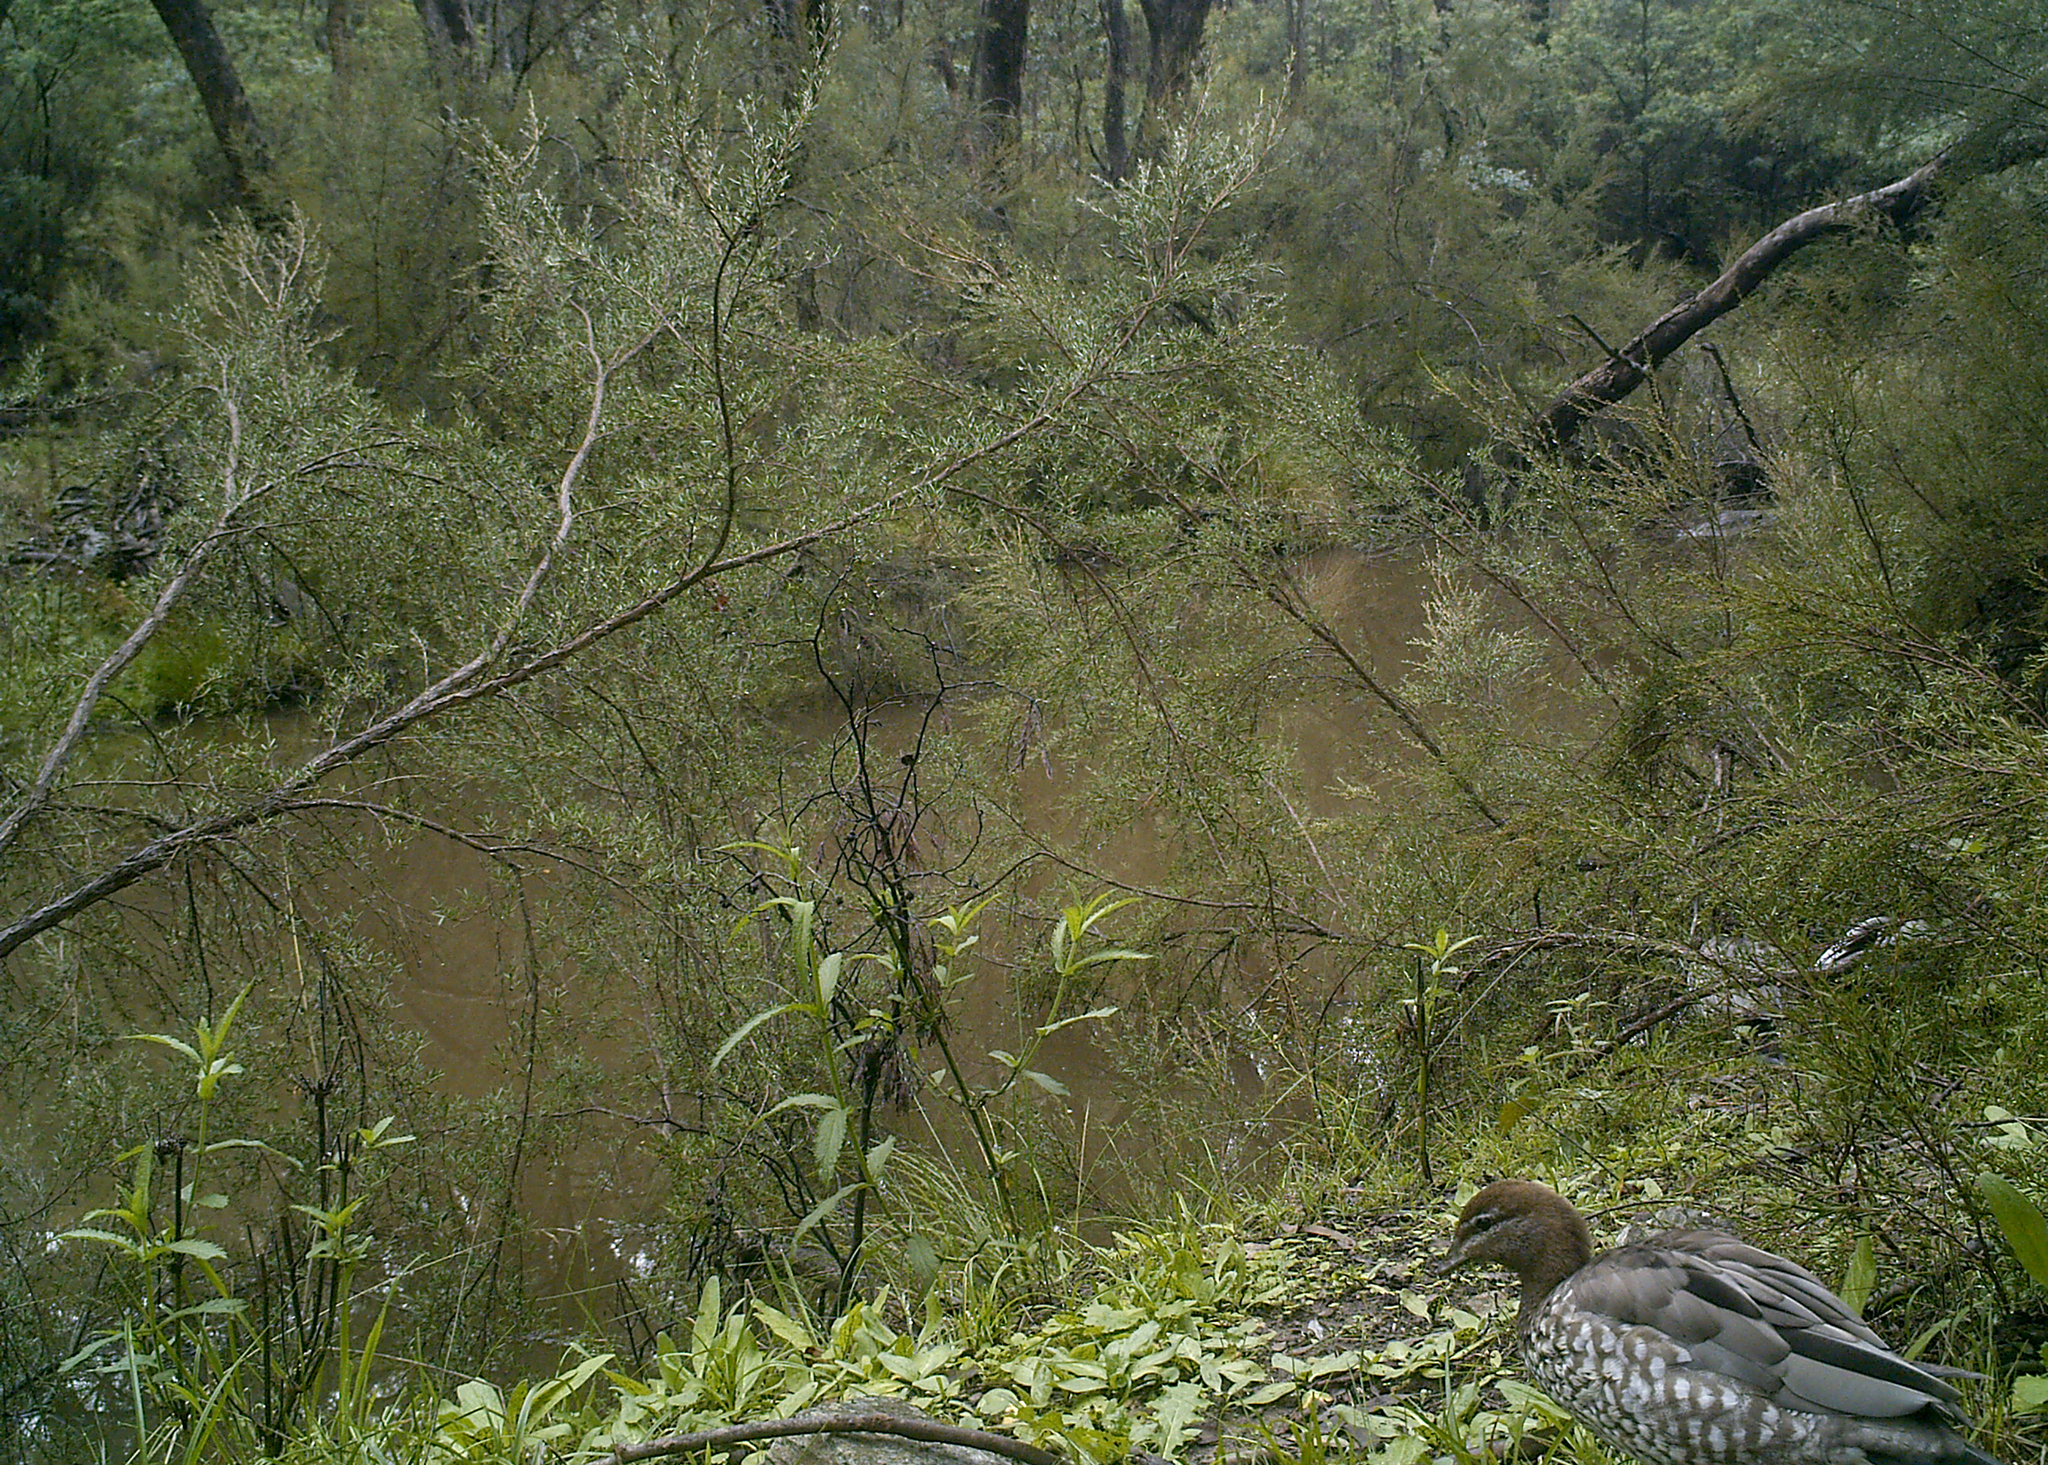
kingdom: Animalia
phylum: Chordata
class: Aves
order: Anseriformes
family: Anatidae
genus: Chenonetta
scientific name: Chenonetta jubata
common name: Maned duck
